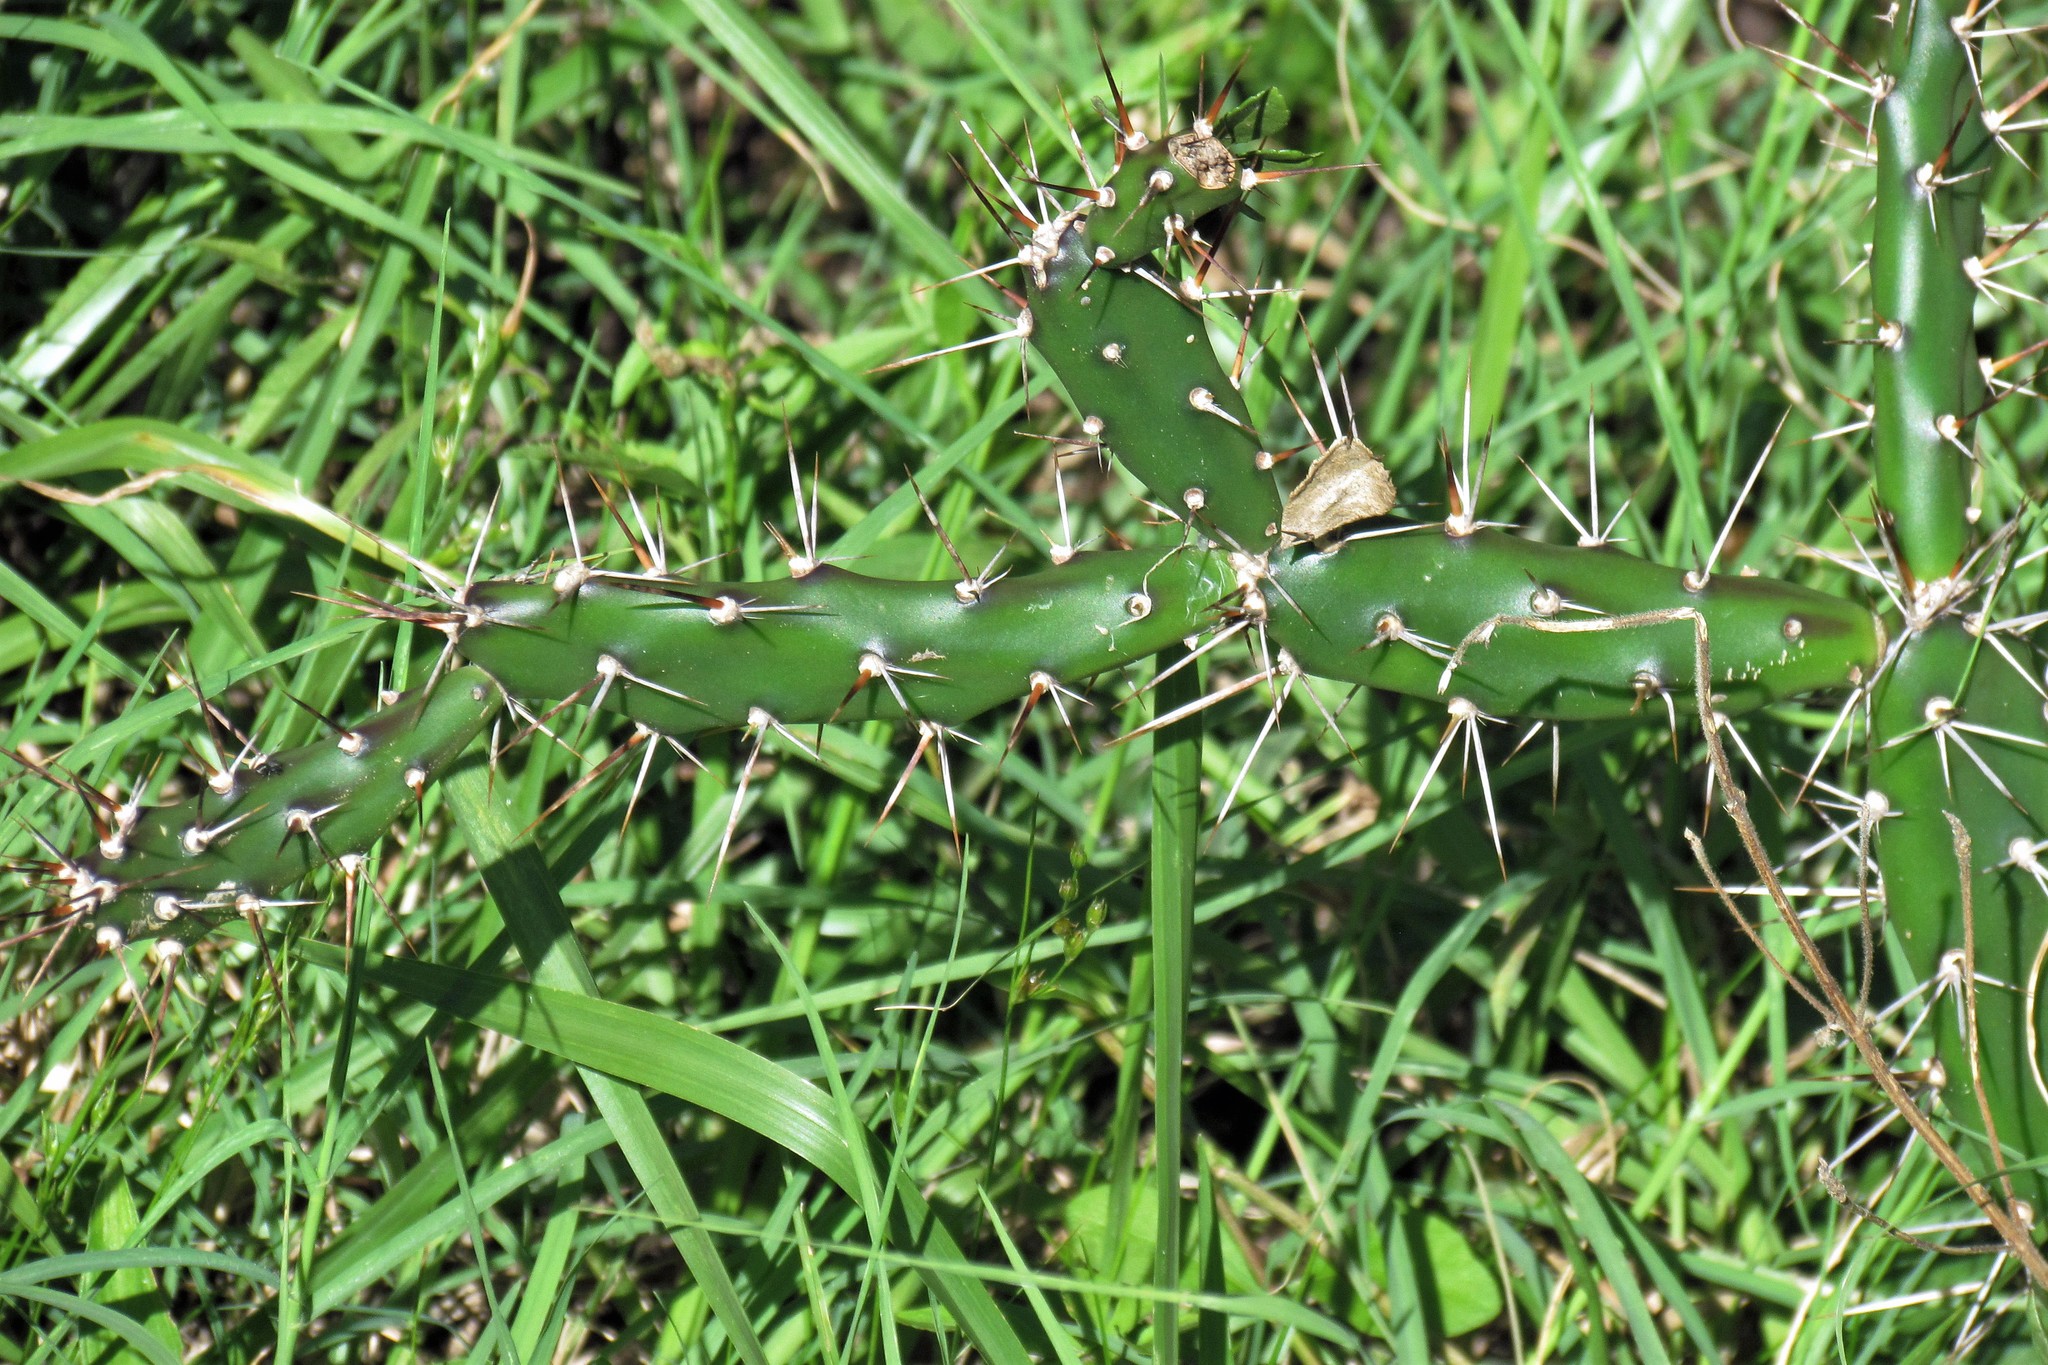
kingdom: Plantae
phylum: Tracheophyta
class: Magnoliopsida
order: Caryophyllales
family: Cactaceae
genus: Opuntia
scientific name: Opuntia aurantiaca
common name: Jointed pricklypear
